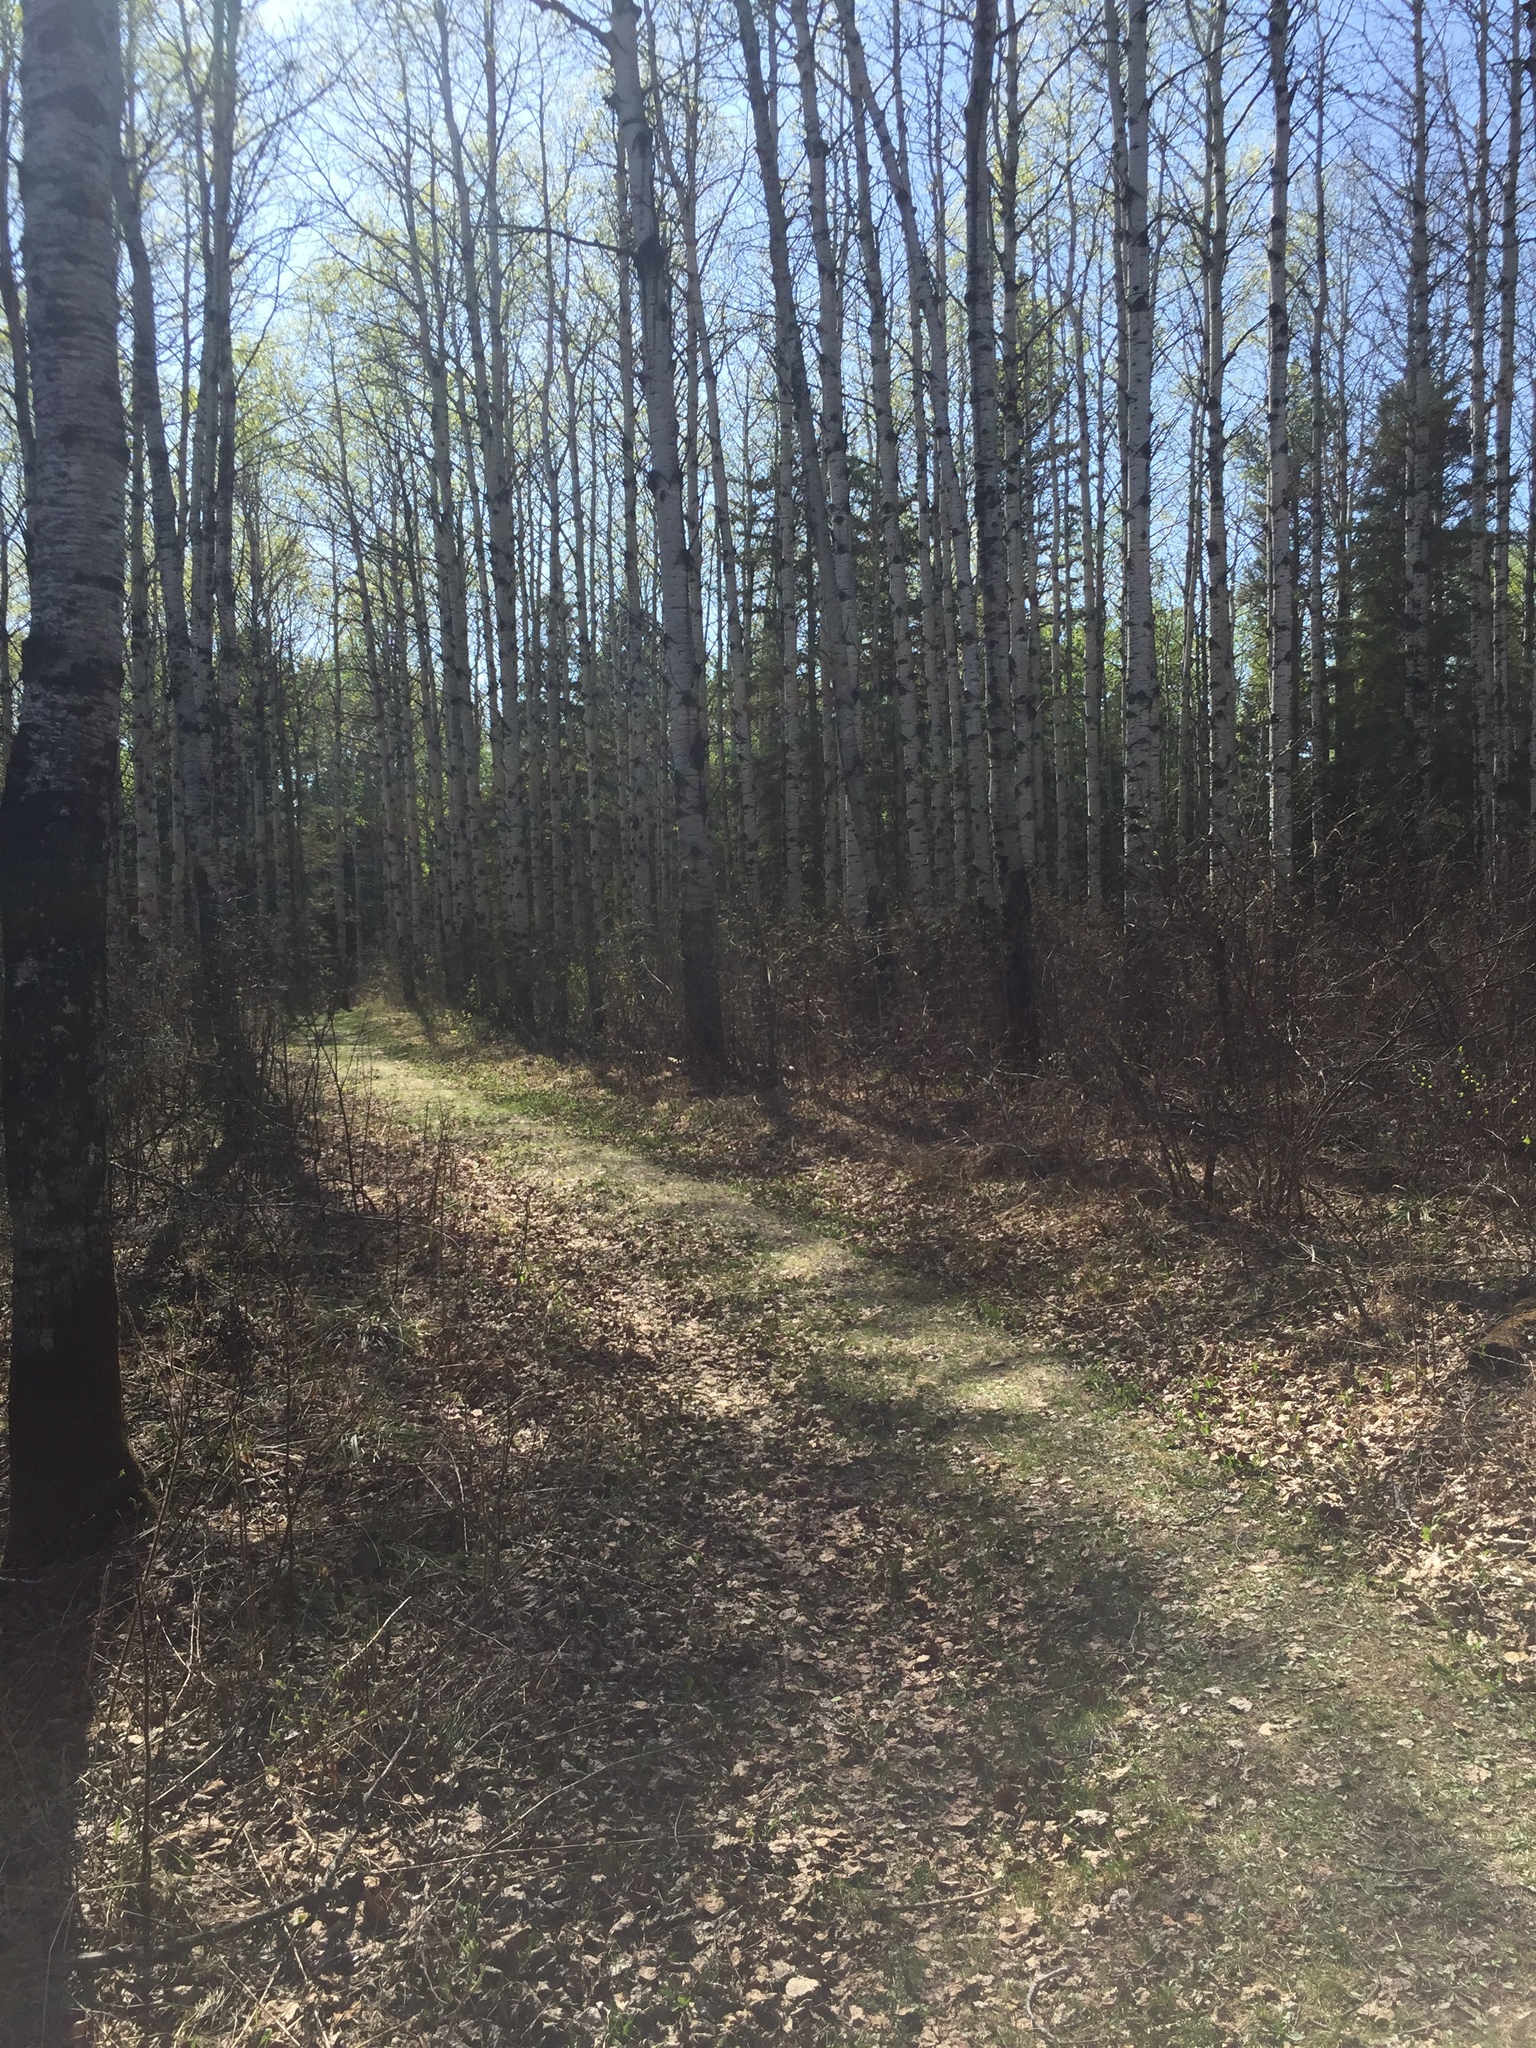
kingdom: Plantae
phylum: Tracheophyta
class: Magnoliopsida
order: Malpighiales
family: Salicaceae
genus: Populus
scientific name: Populus tremuloides
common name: Quaking aspen
